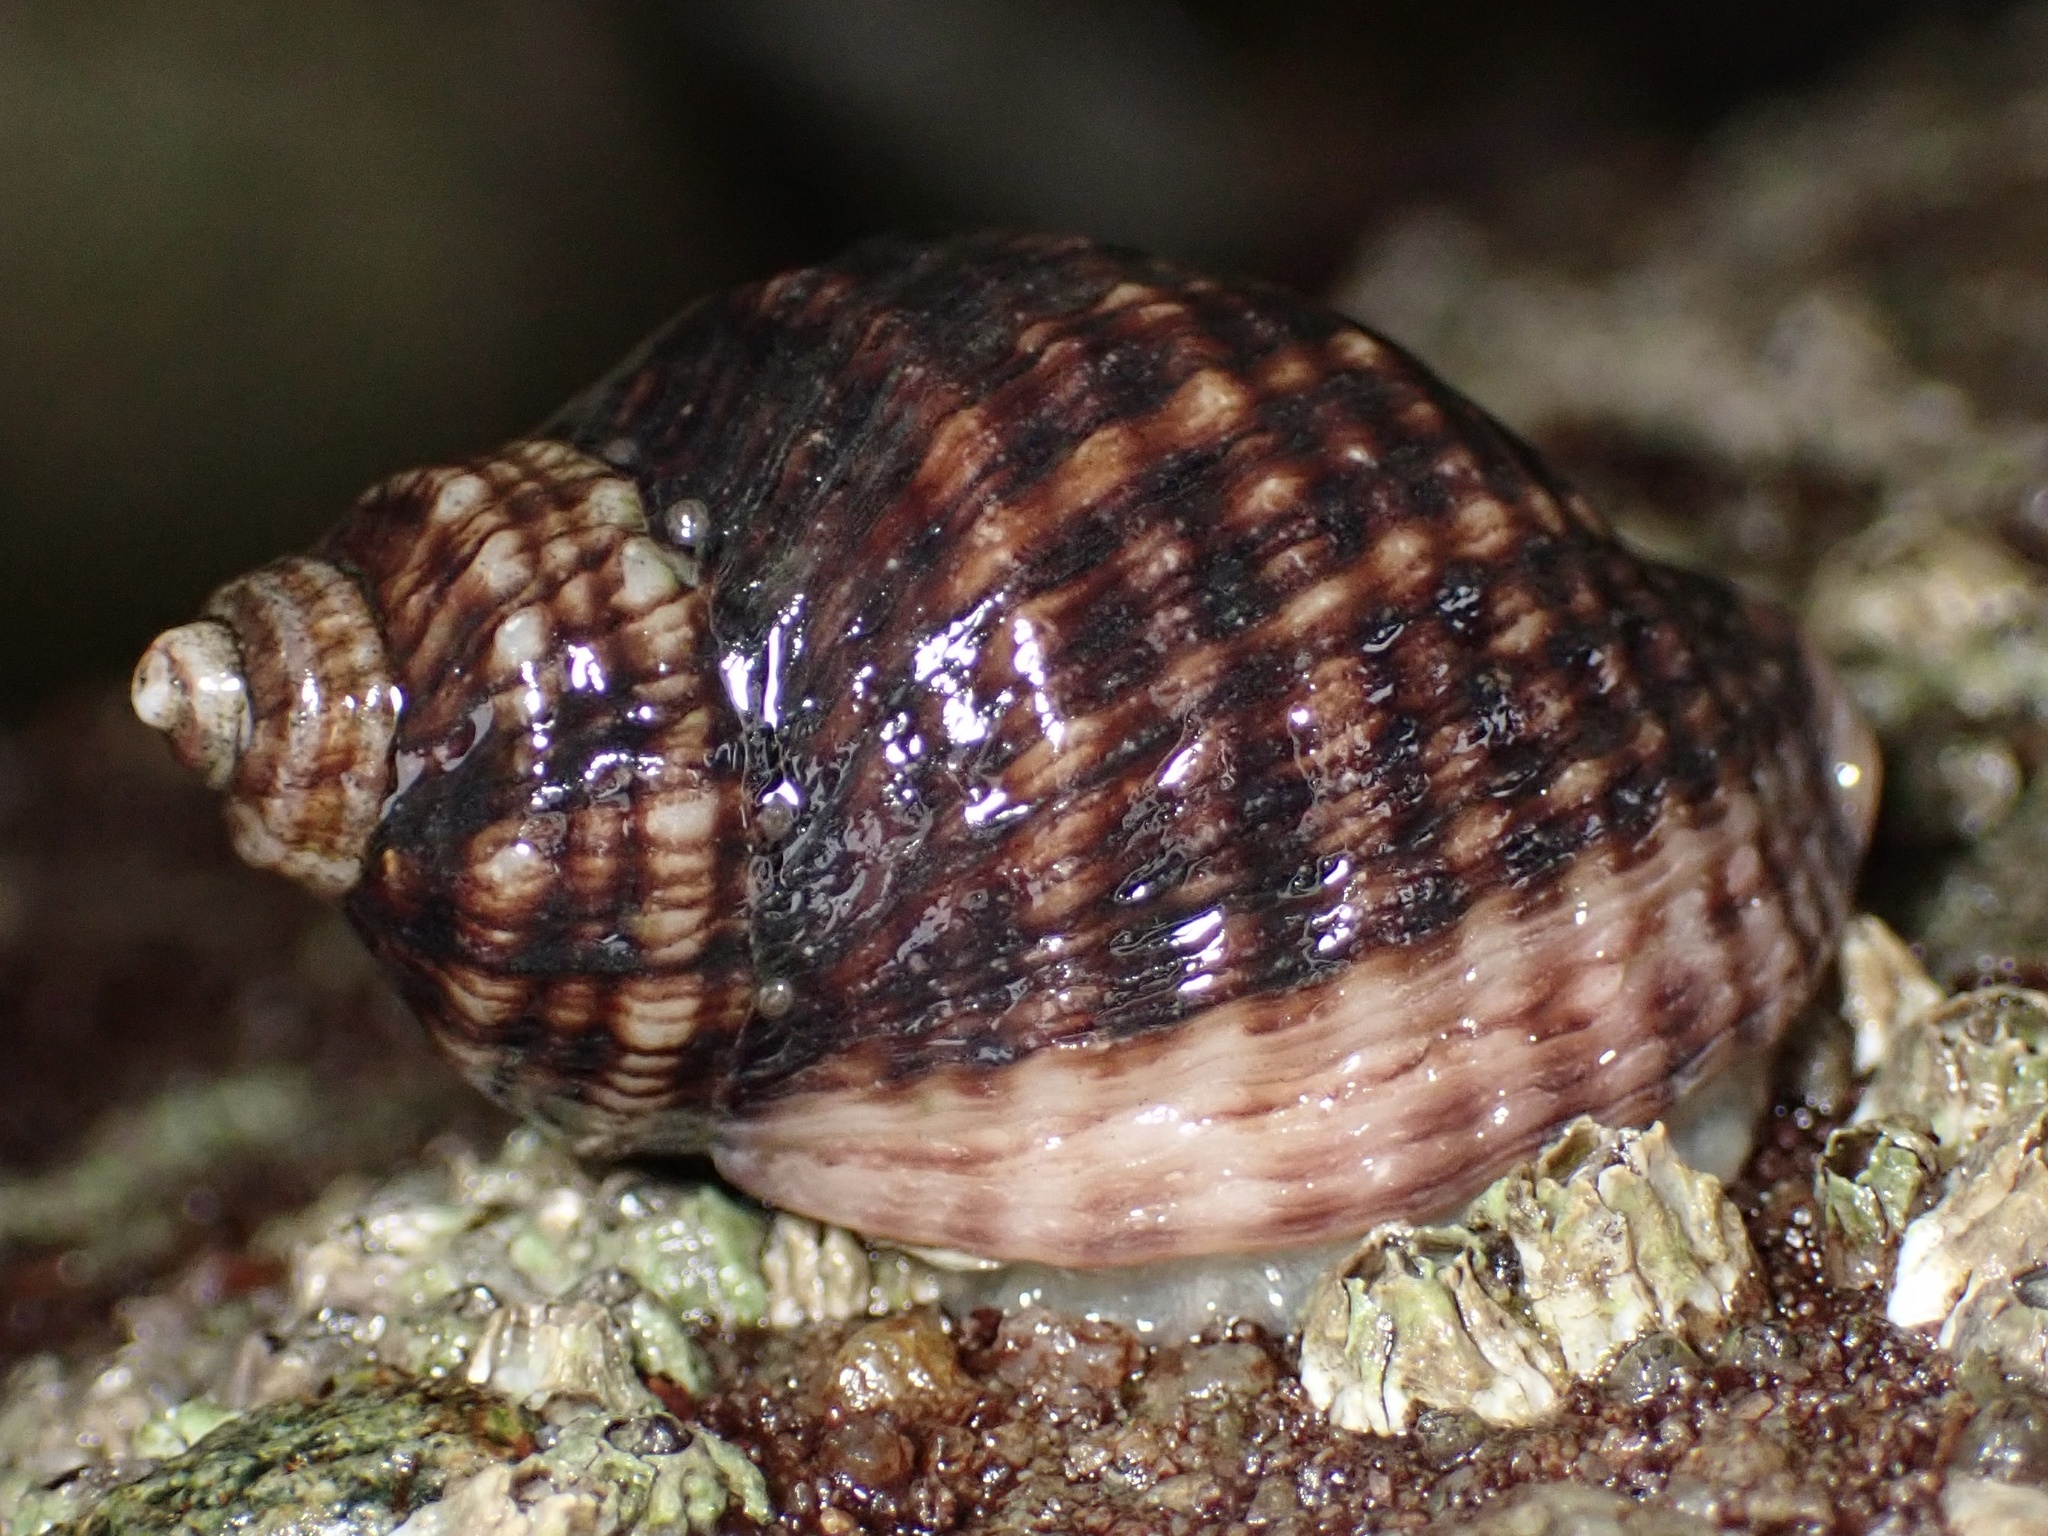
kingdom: Animalia
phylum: Mollusca
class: Gastropoda
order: Neogastropoda
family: Muricidae
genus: Nucella
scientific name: Nucella ostrina
